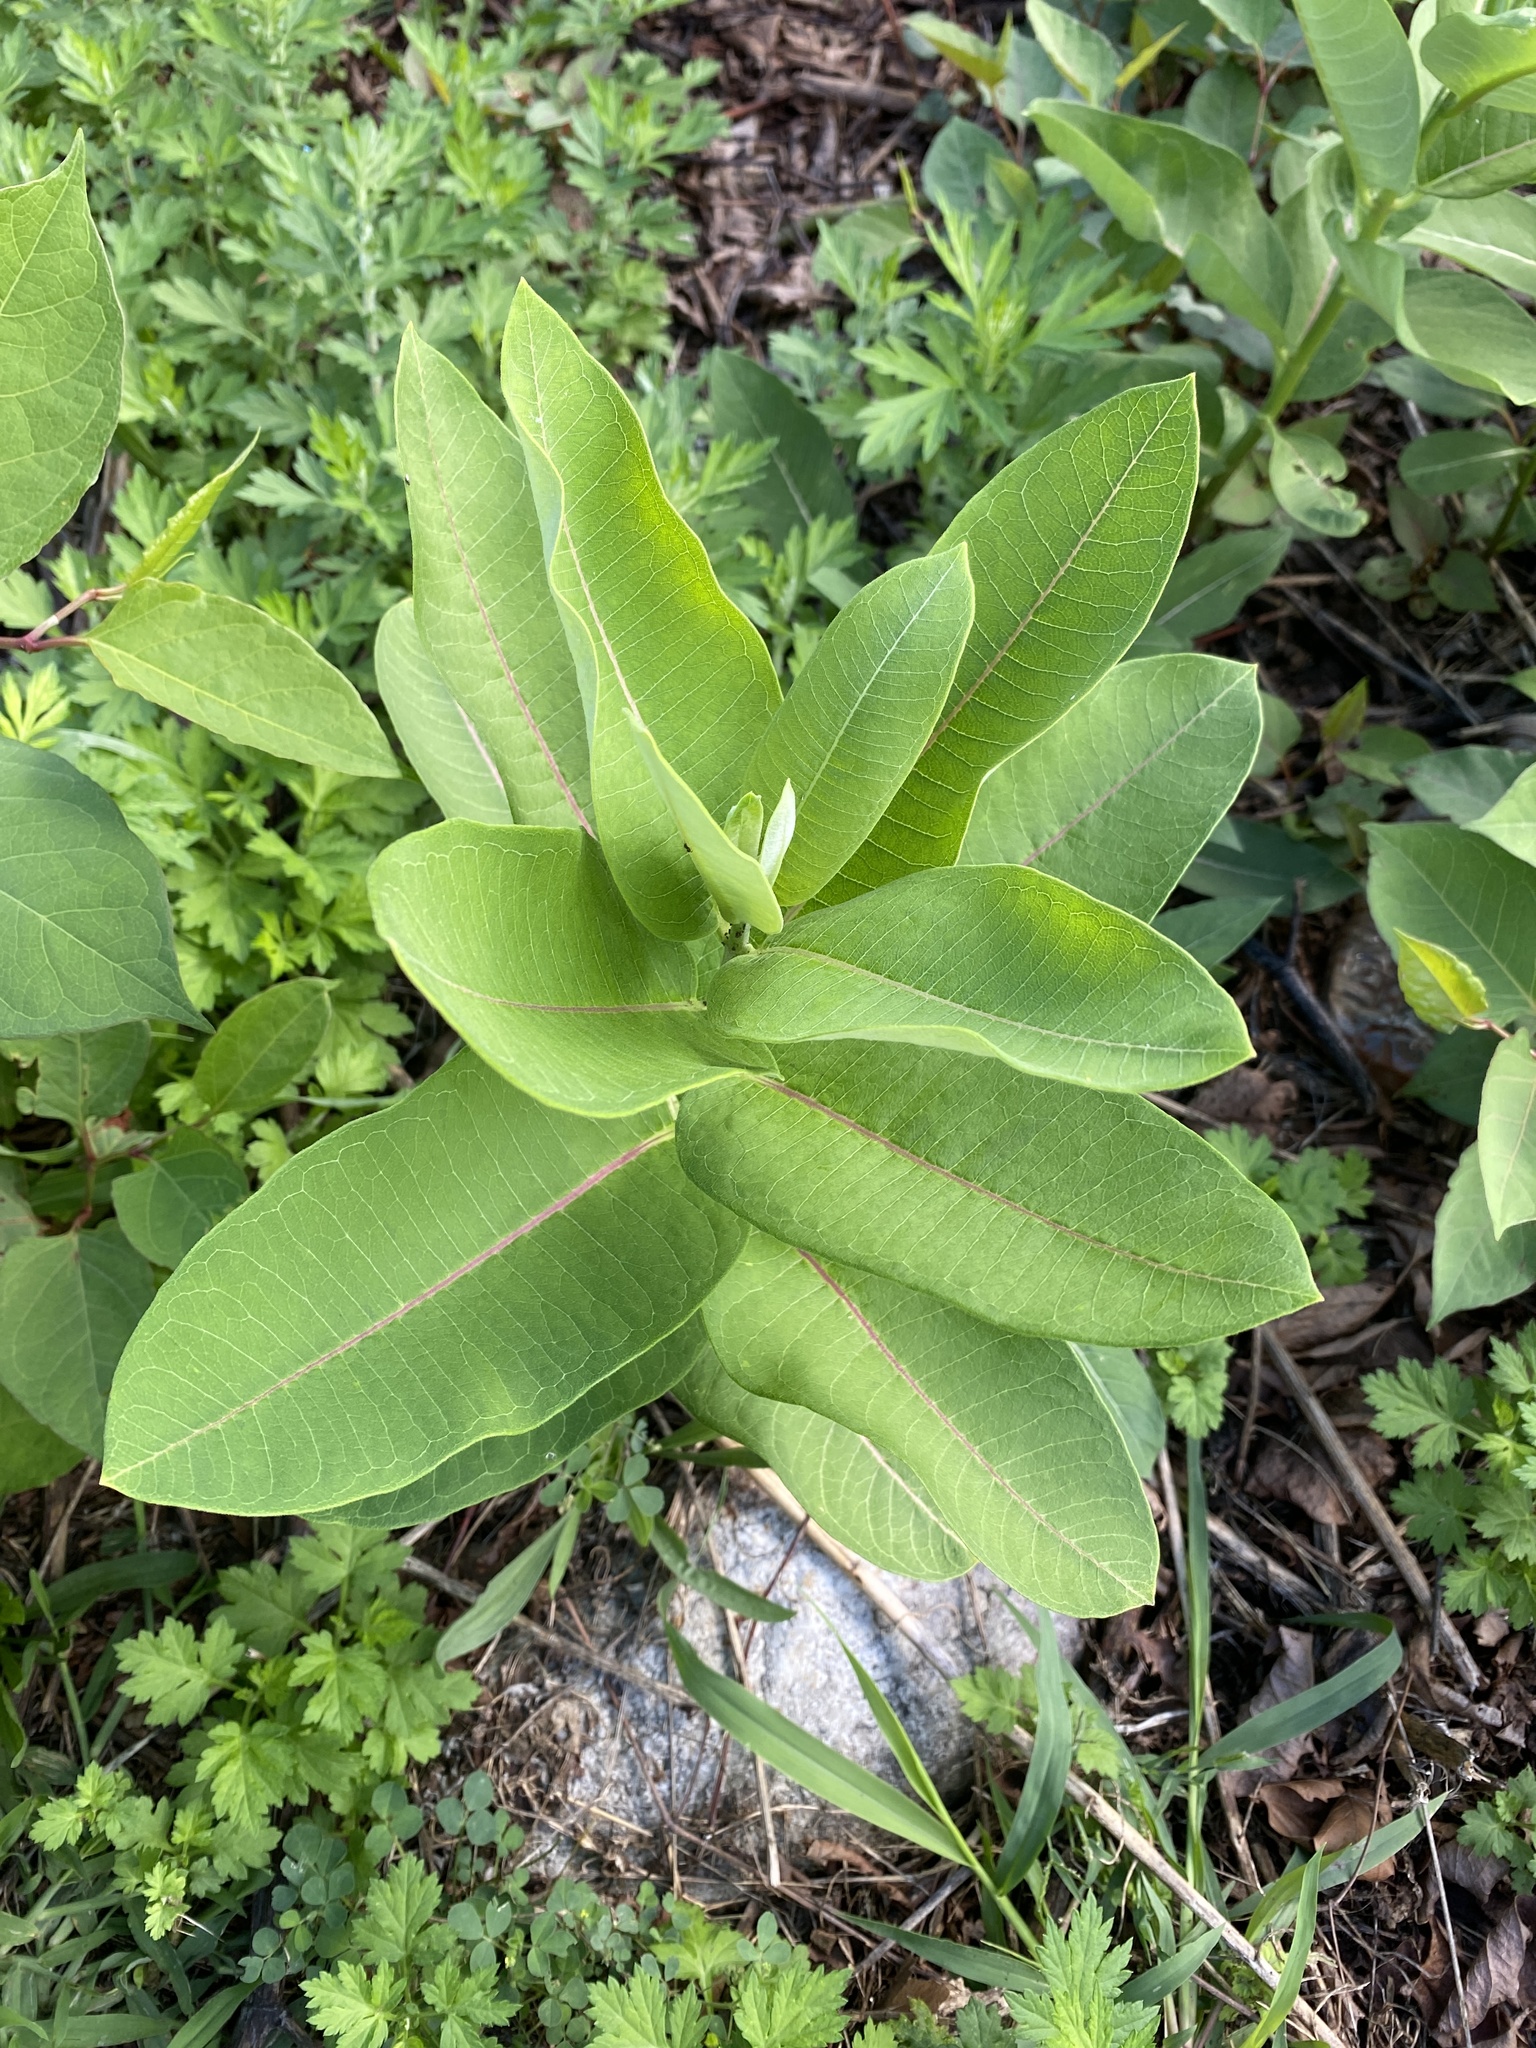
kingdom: Plantae
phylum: Tracheophyta
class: Magnoliopsida
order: Gentianales
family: Apocynaceae
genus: Asclepias
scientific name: Asclepias syriaca
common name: Common milkweed
